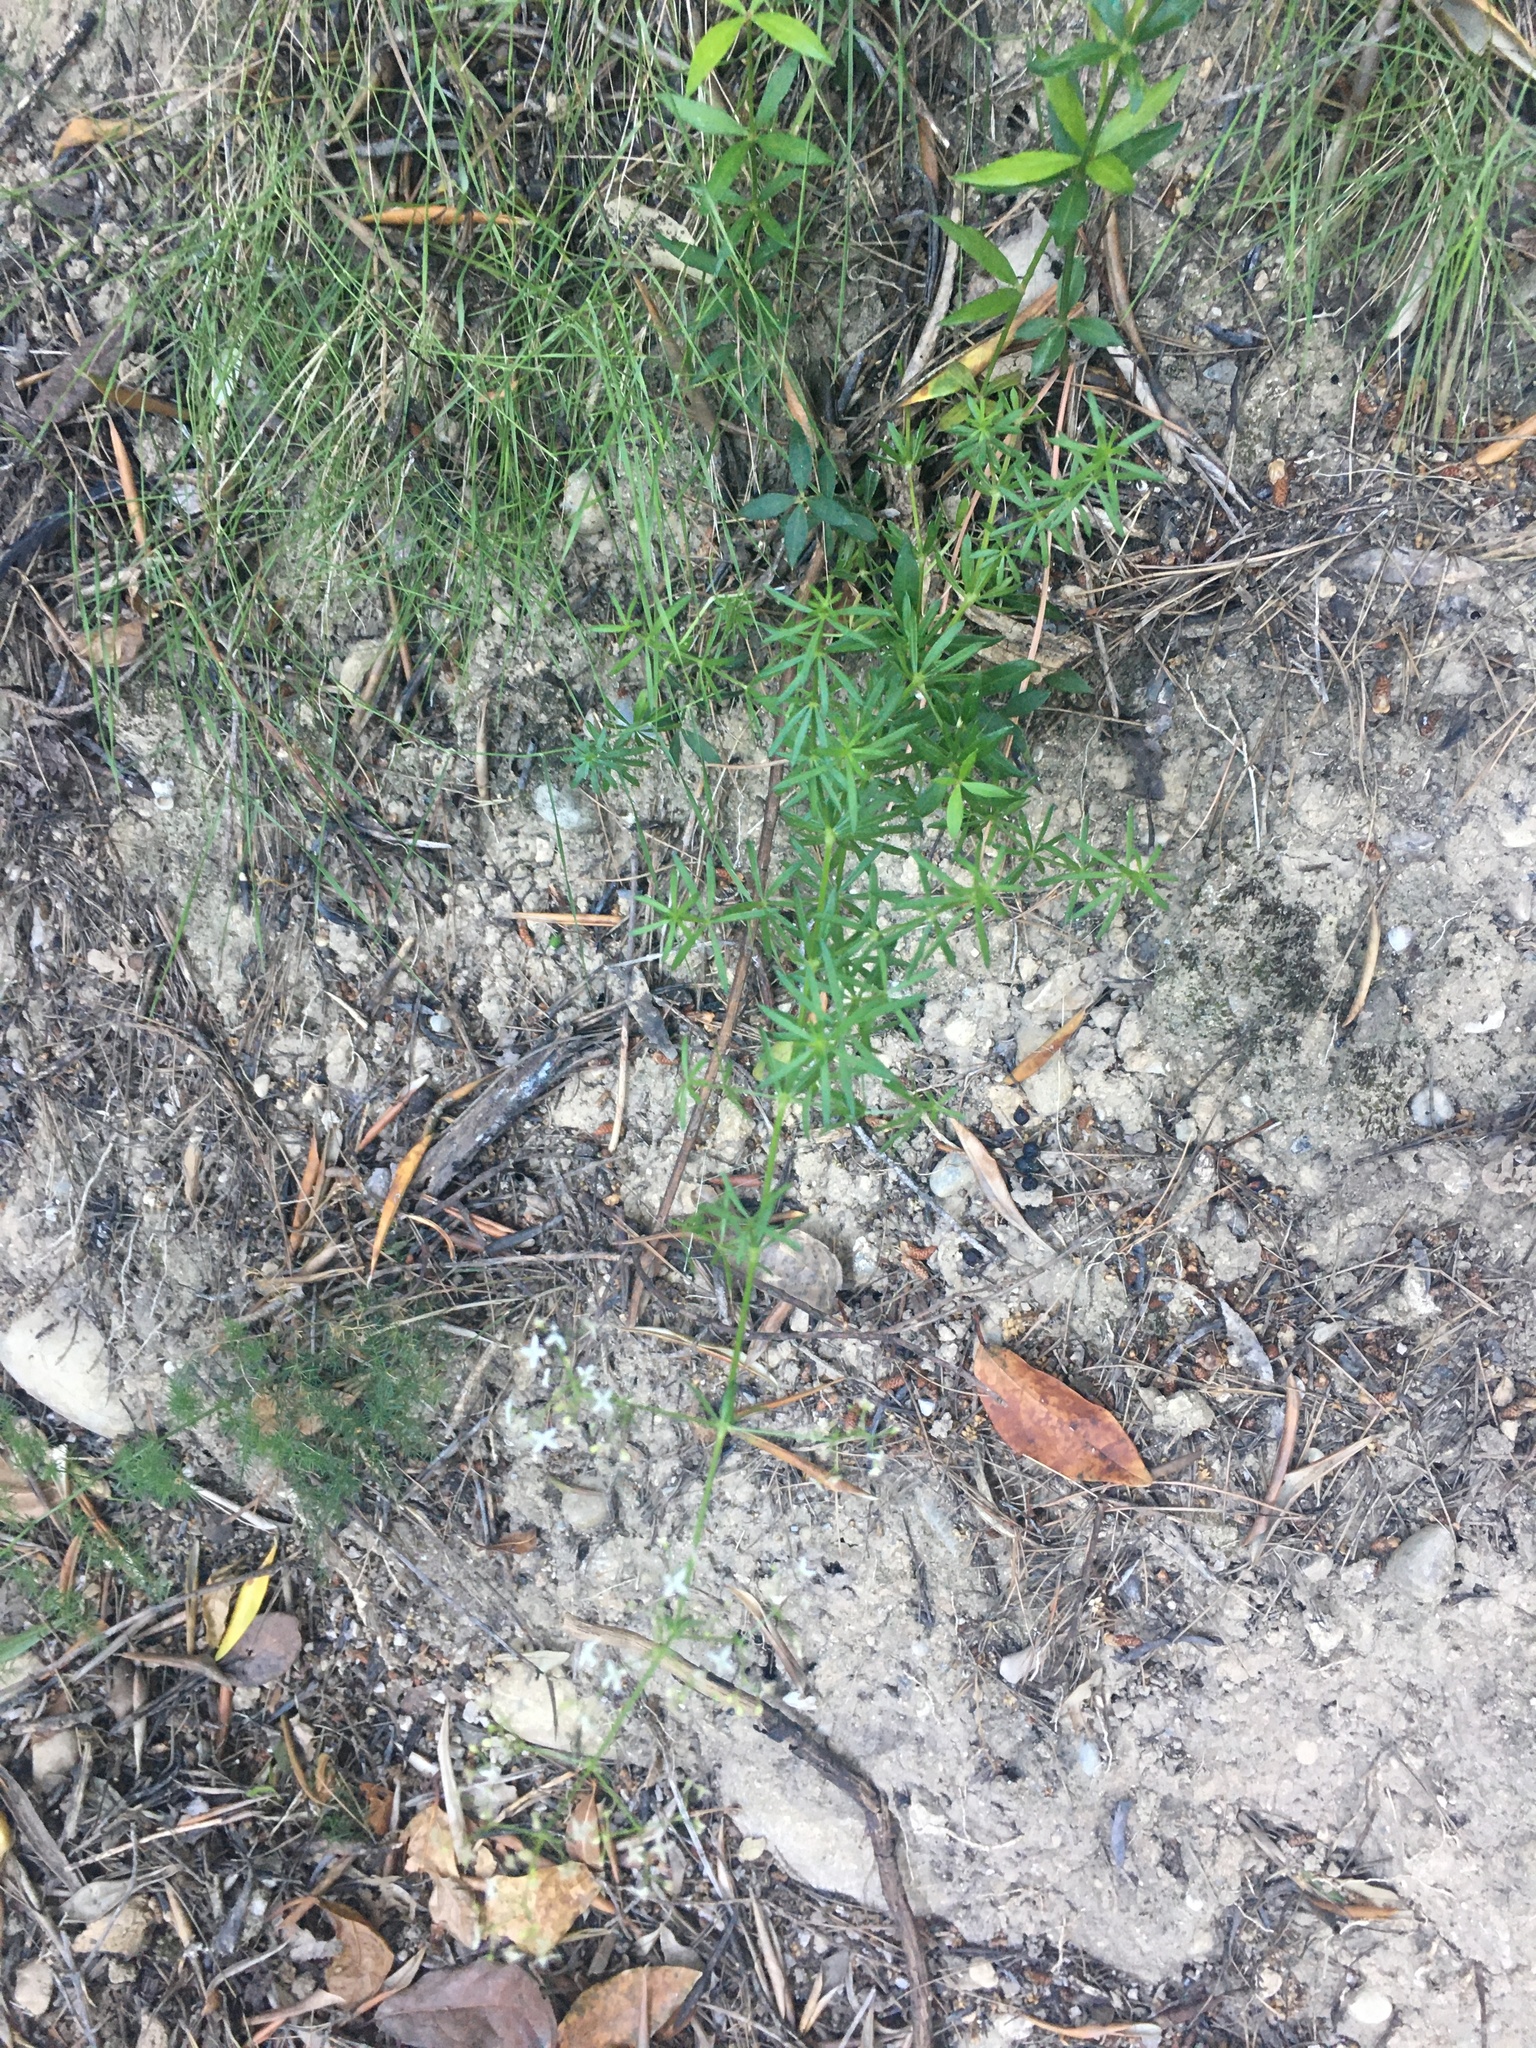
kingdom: Plantae
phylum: Tracheophyta
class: Magnoliopsida
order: Gentianales
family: Rubiaceae
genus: Rubia
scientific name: Rubia peregrina
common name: Wild madder
